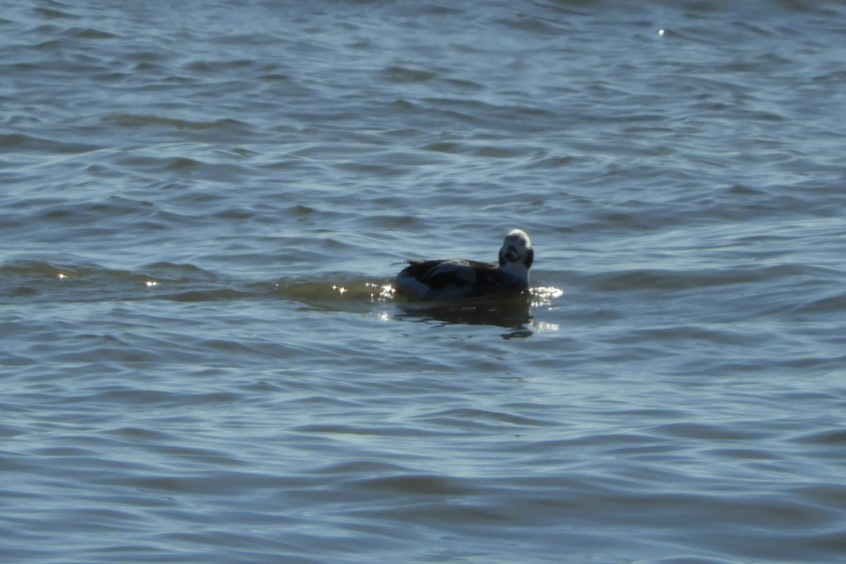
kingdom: Animalia
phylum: Chordata
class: Aves
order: Anseriformes
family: Anatidae
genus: Clangula
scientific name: Clangula hyemalis
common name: Long-tailed duck
